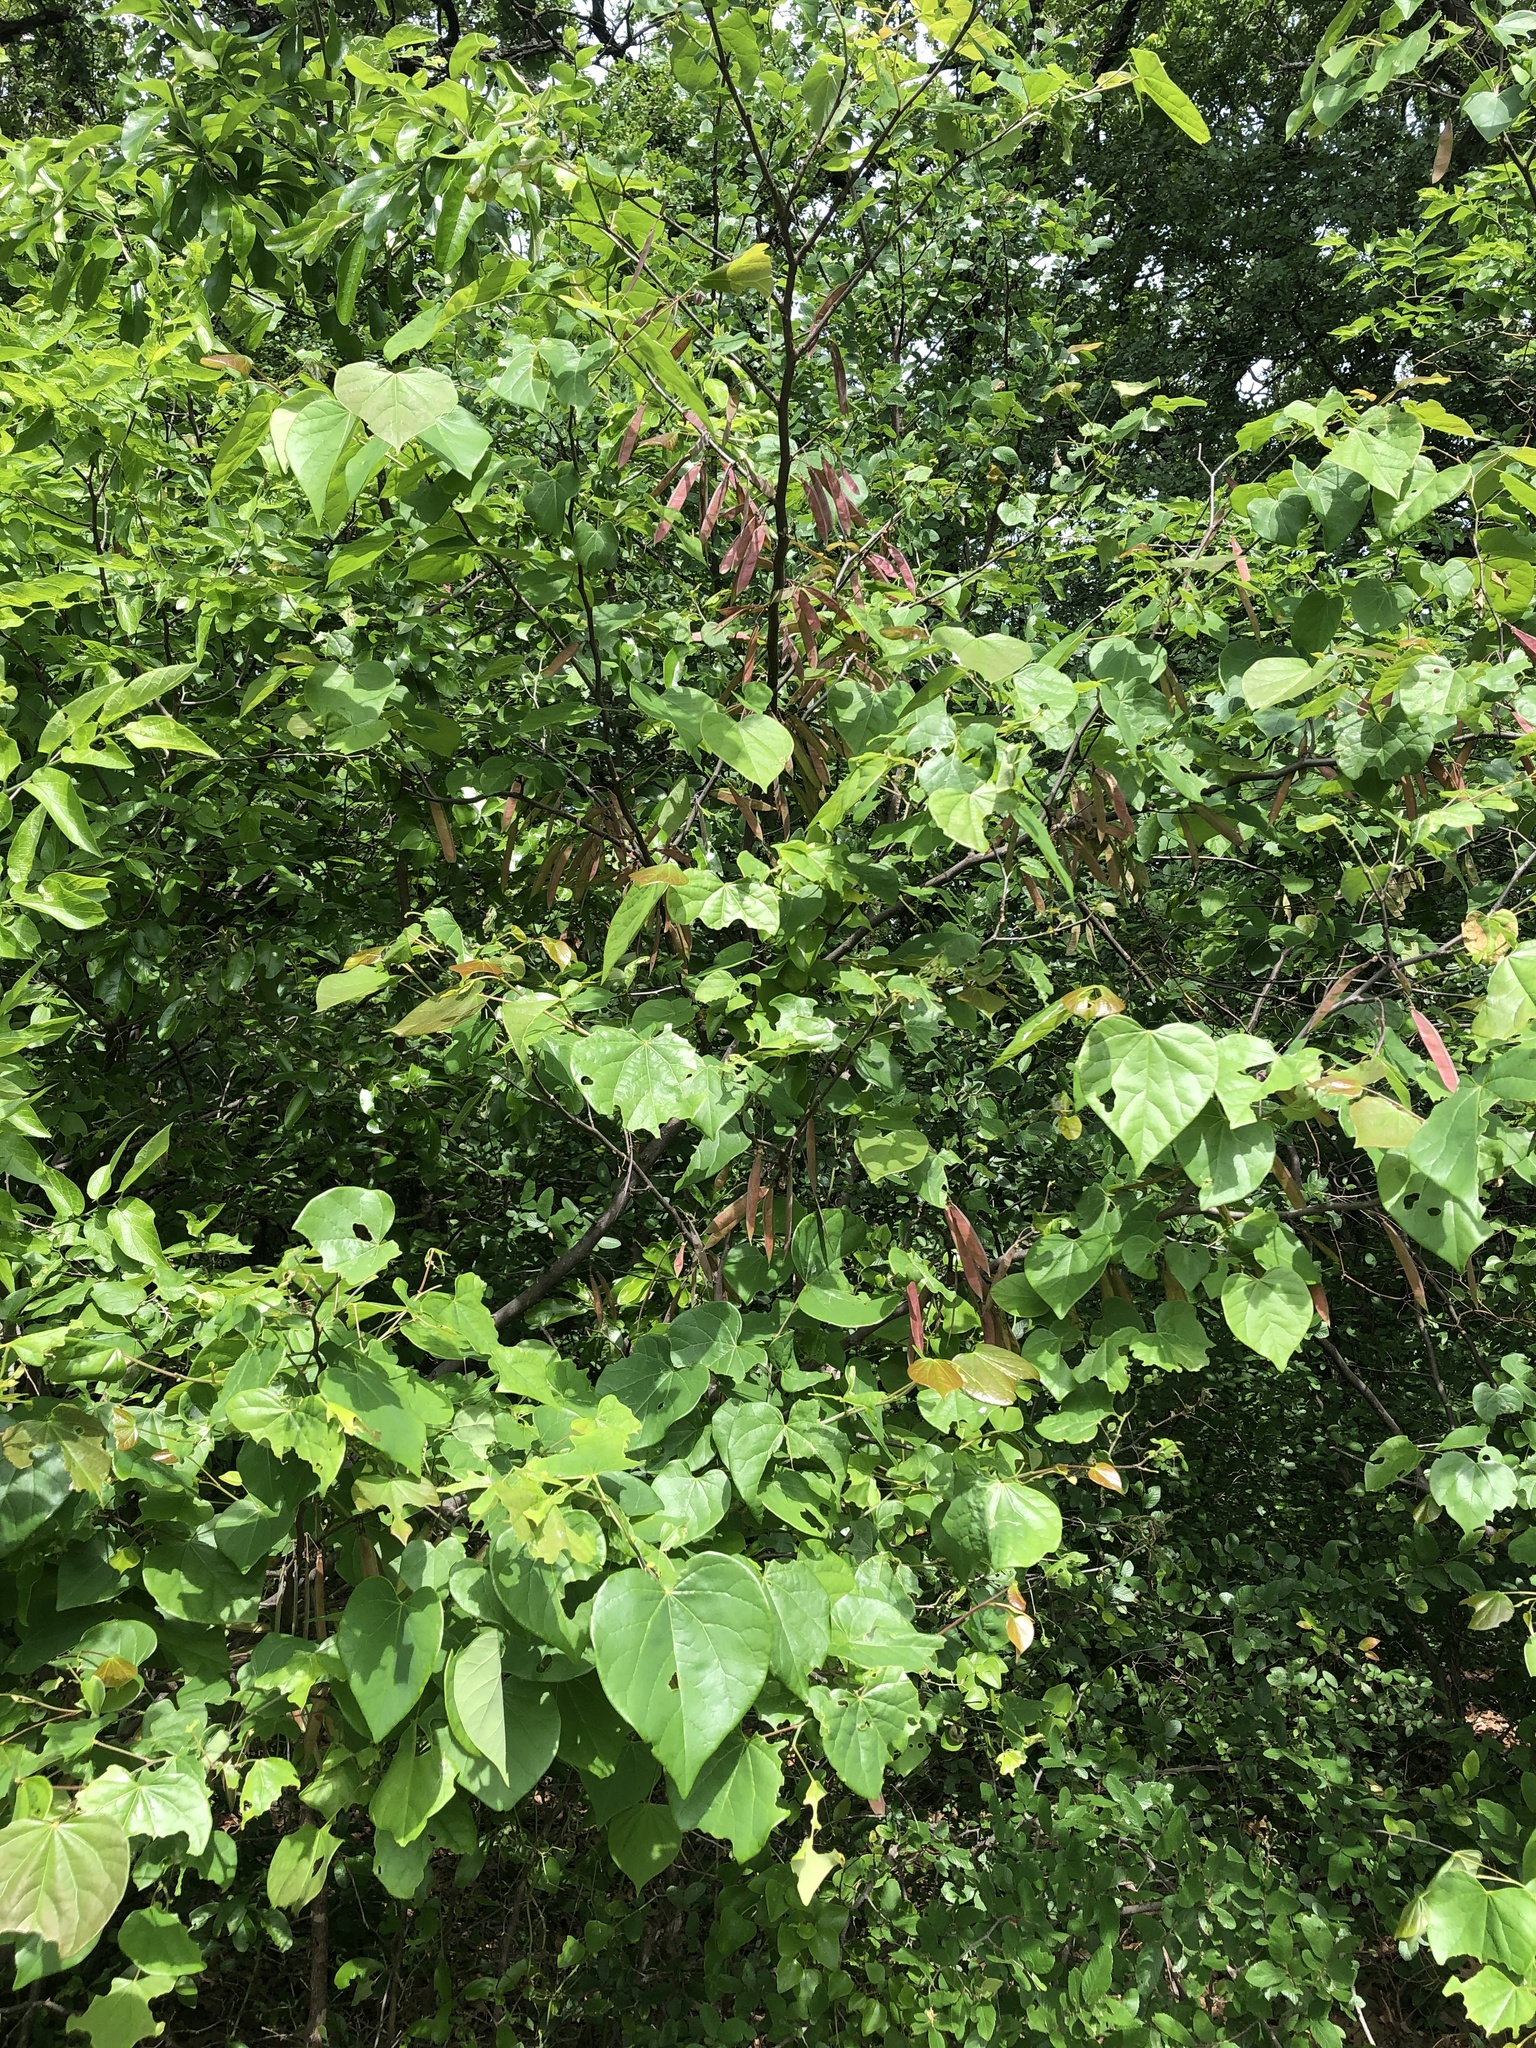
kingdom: Plantae
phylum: Tracheophyta
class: Magnoliopsida
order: Fabales
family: Fabaceae
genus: Cercis
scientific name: Cercis canadensis
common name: Eastern redbud
